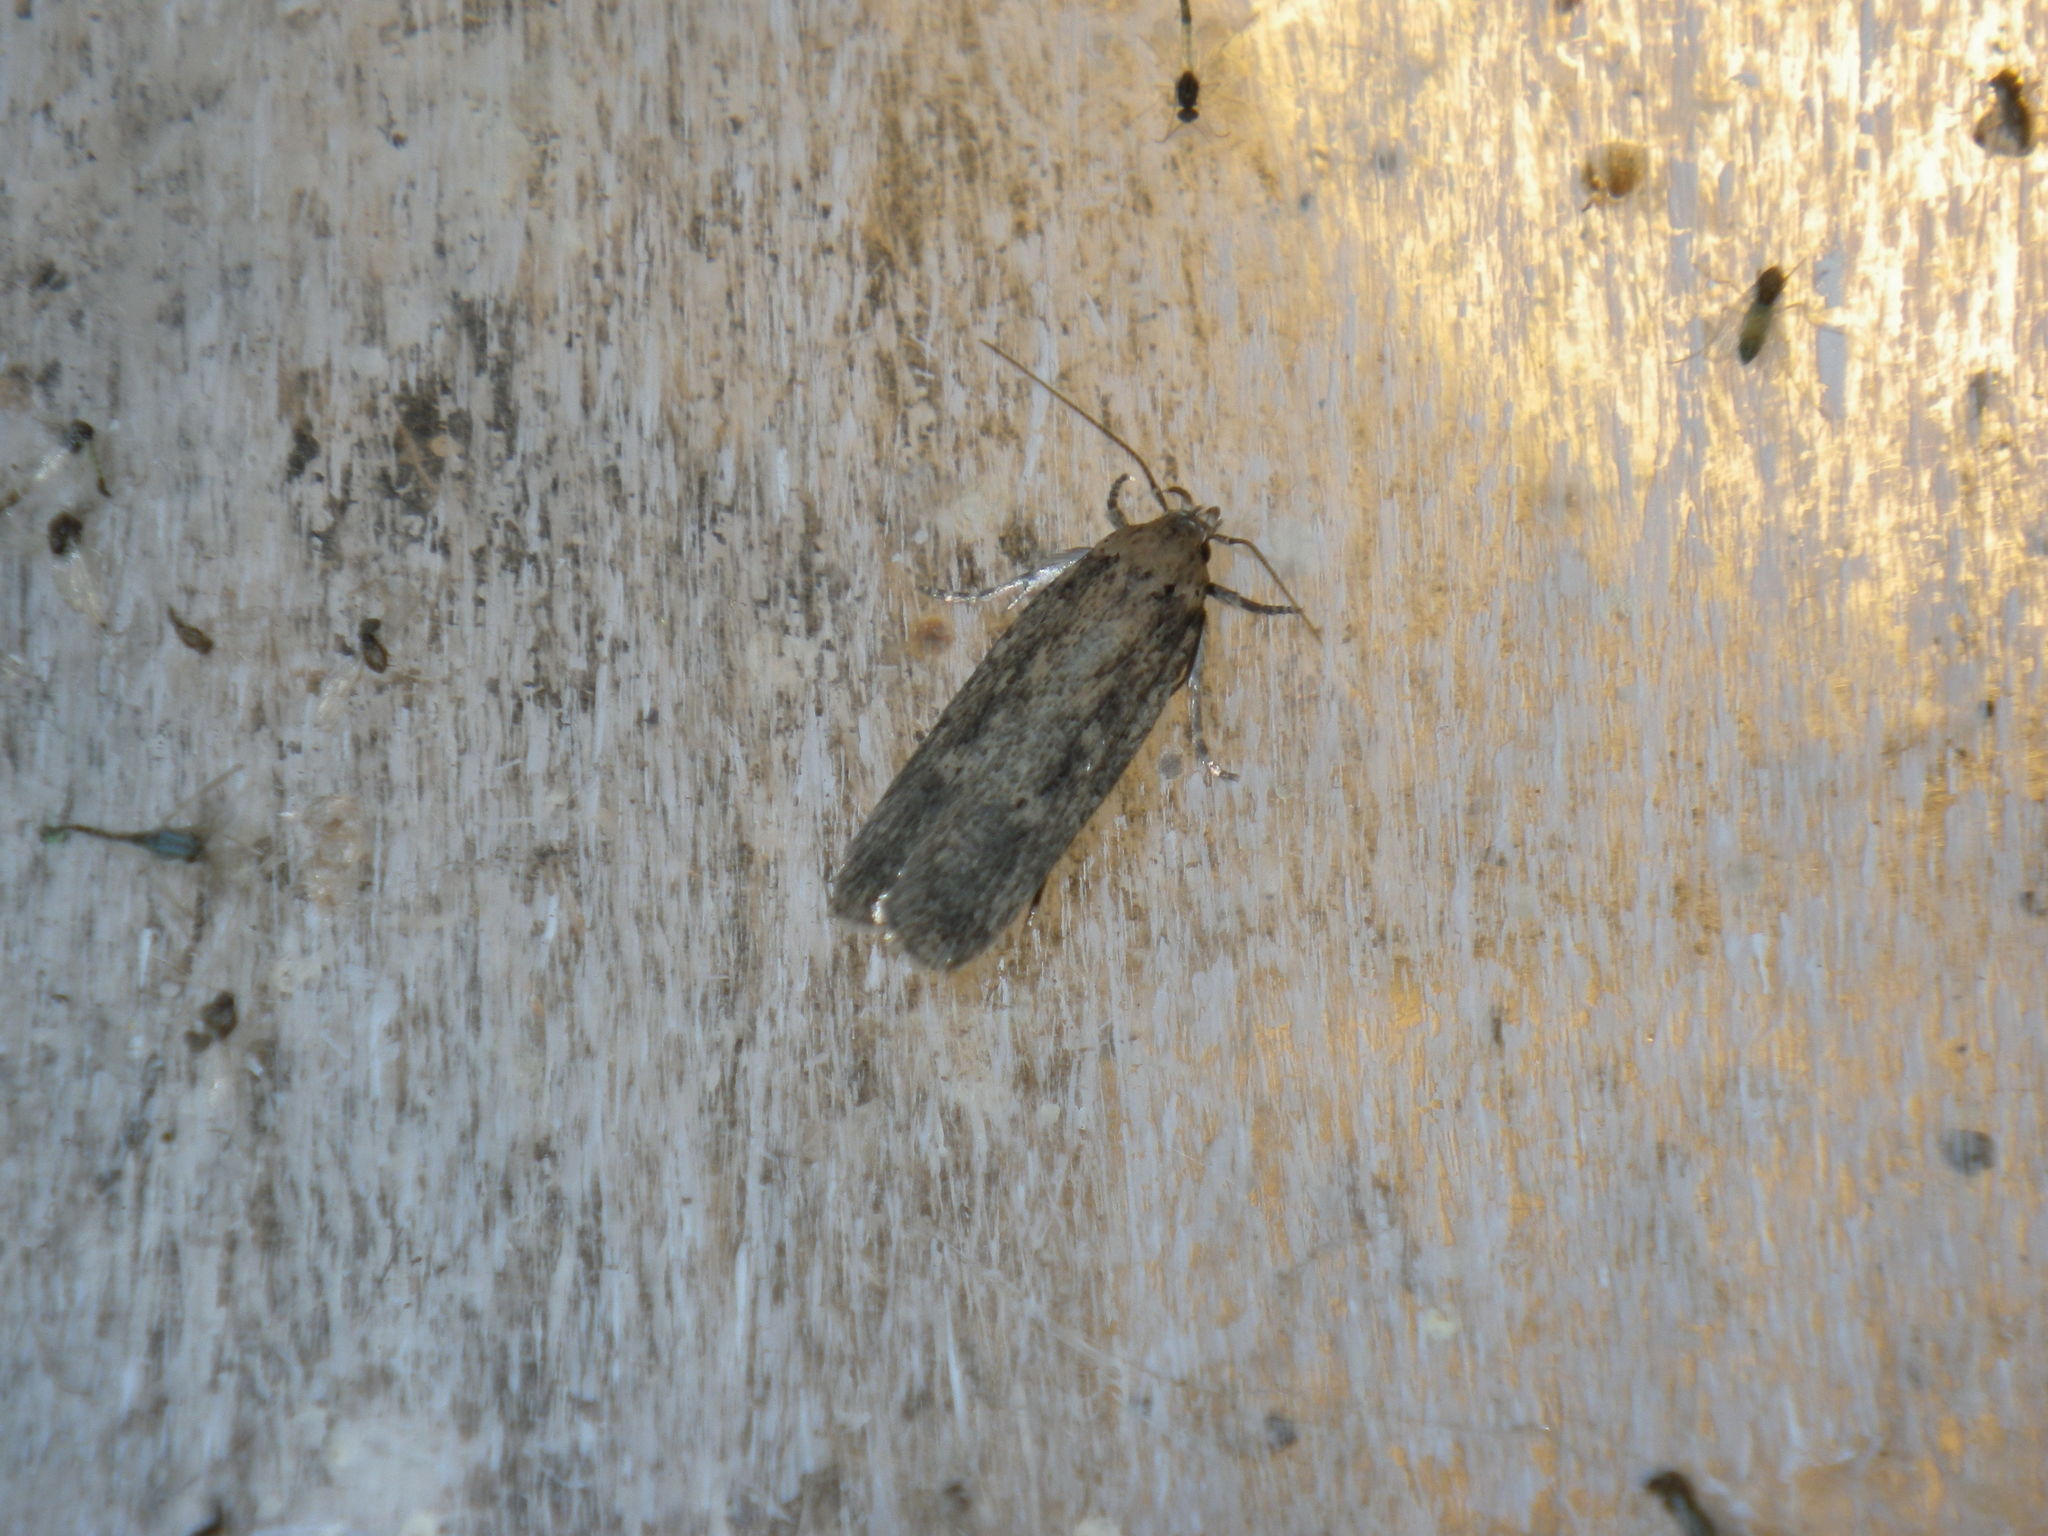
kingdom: Animalia
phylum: Arthropoda
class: Insecta
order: Lepidoptera
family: Gelechiidae
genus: Platyedra
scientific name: Platyedra subcinerea
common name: Moth
